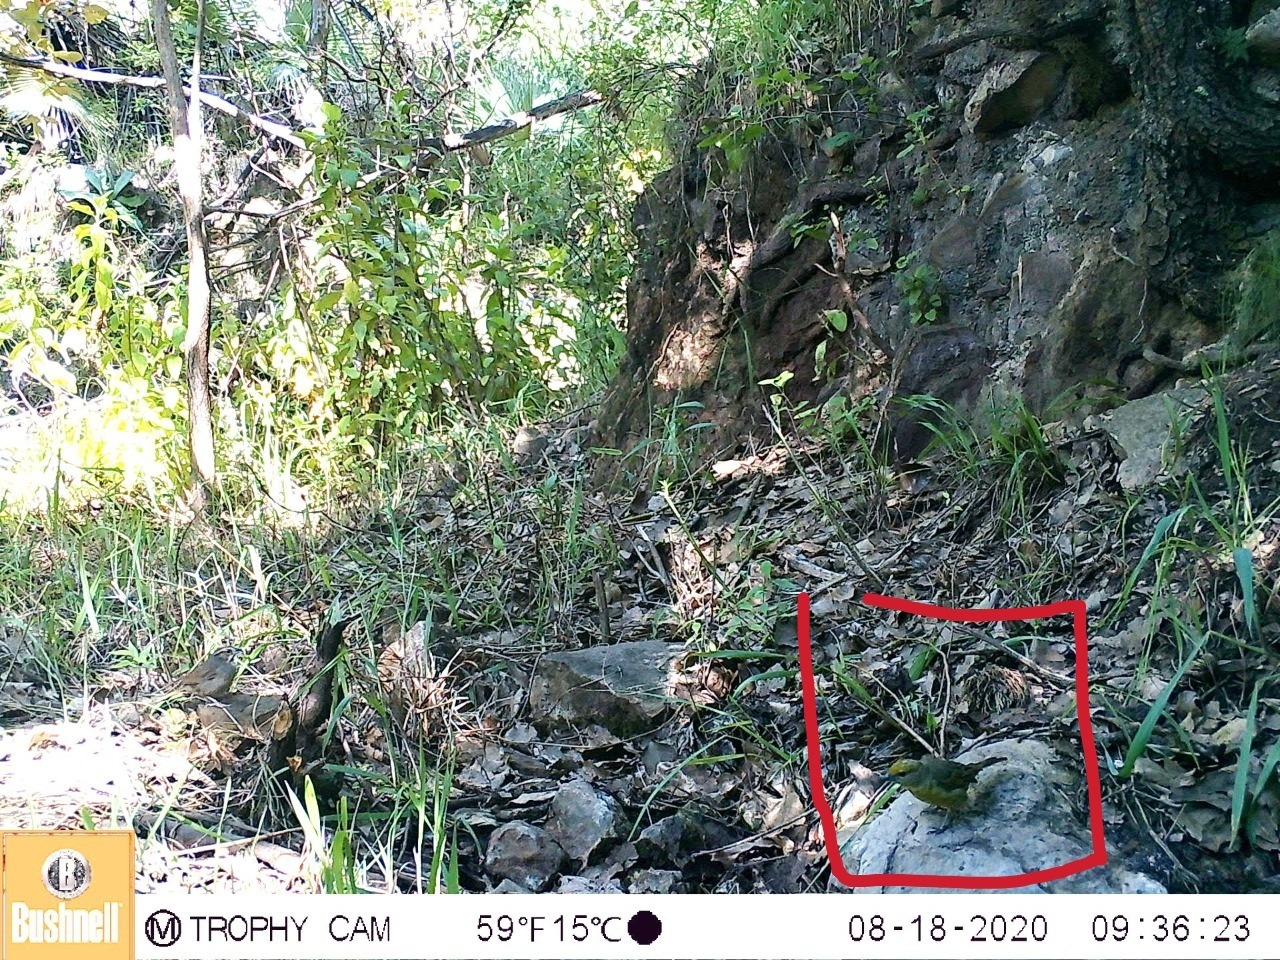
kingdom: Animalia
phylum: Chordata
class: Aves
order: Passeriformes
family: Cardinalidae
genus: Piranga
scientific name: Piranga erythrocephala
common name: Red-headed tanager
